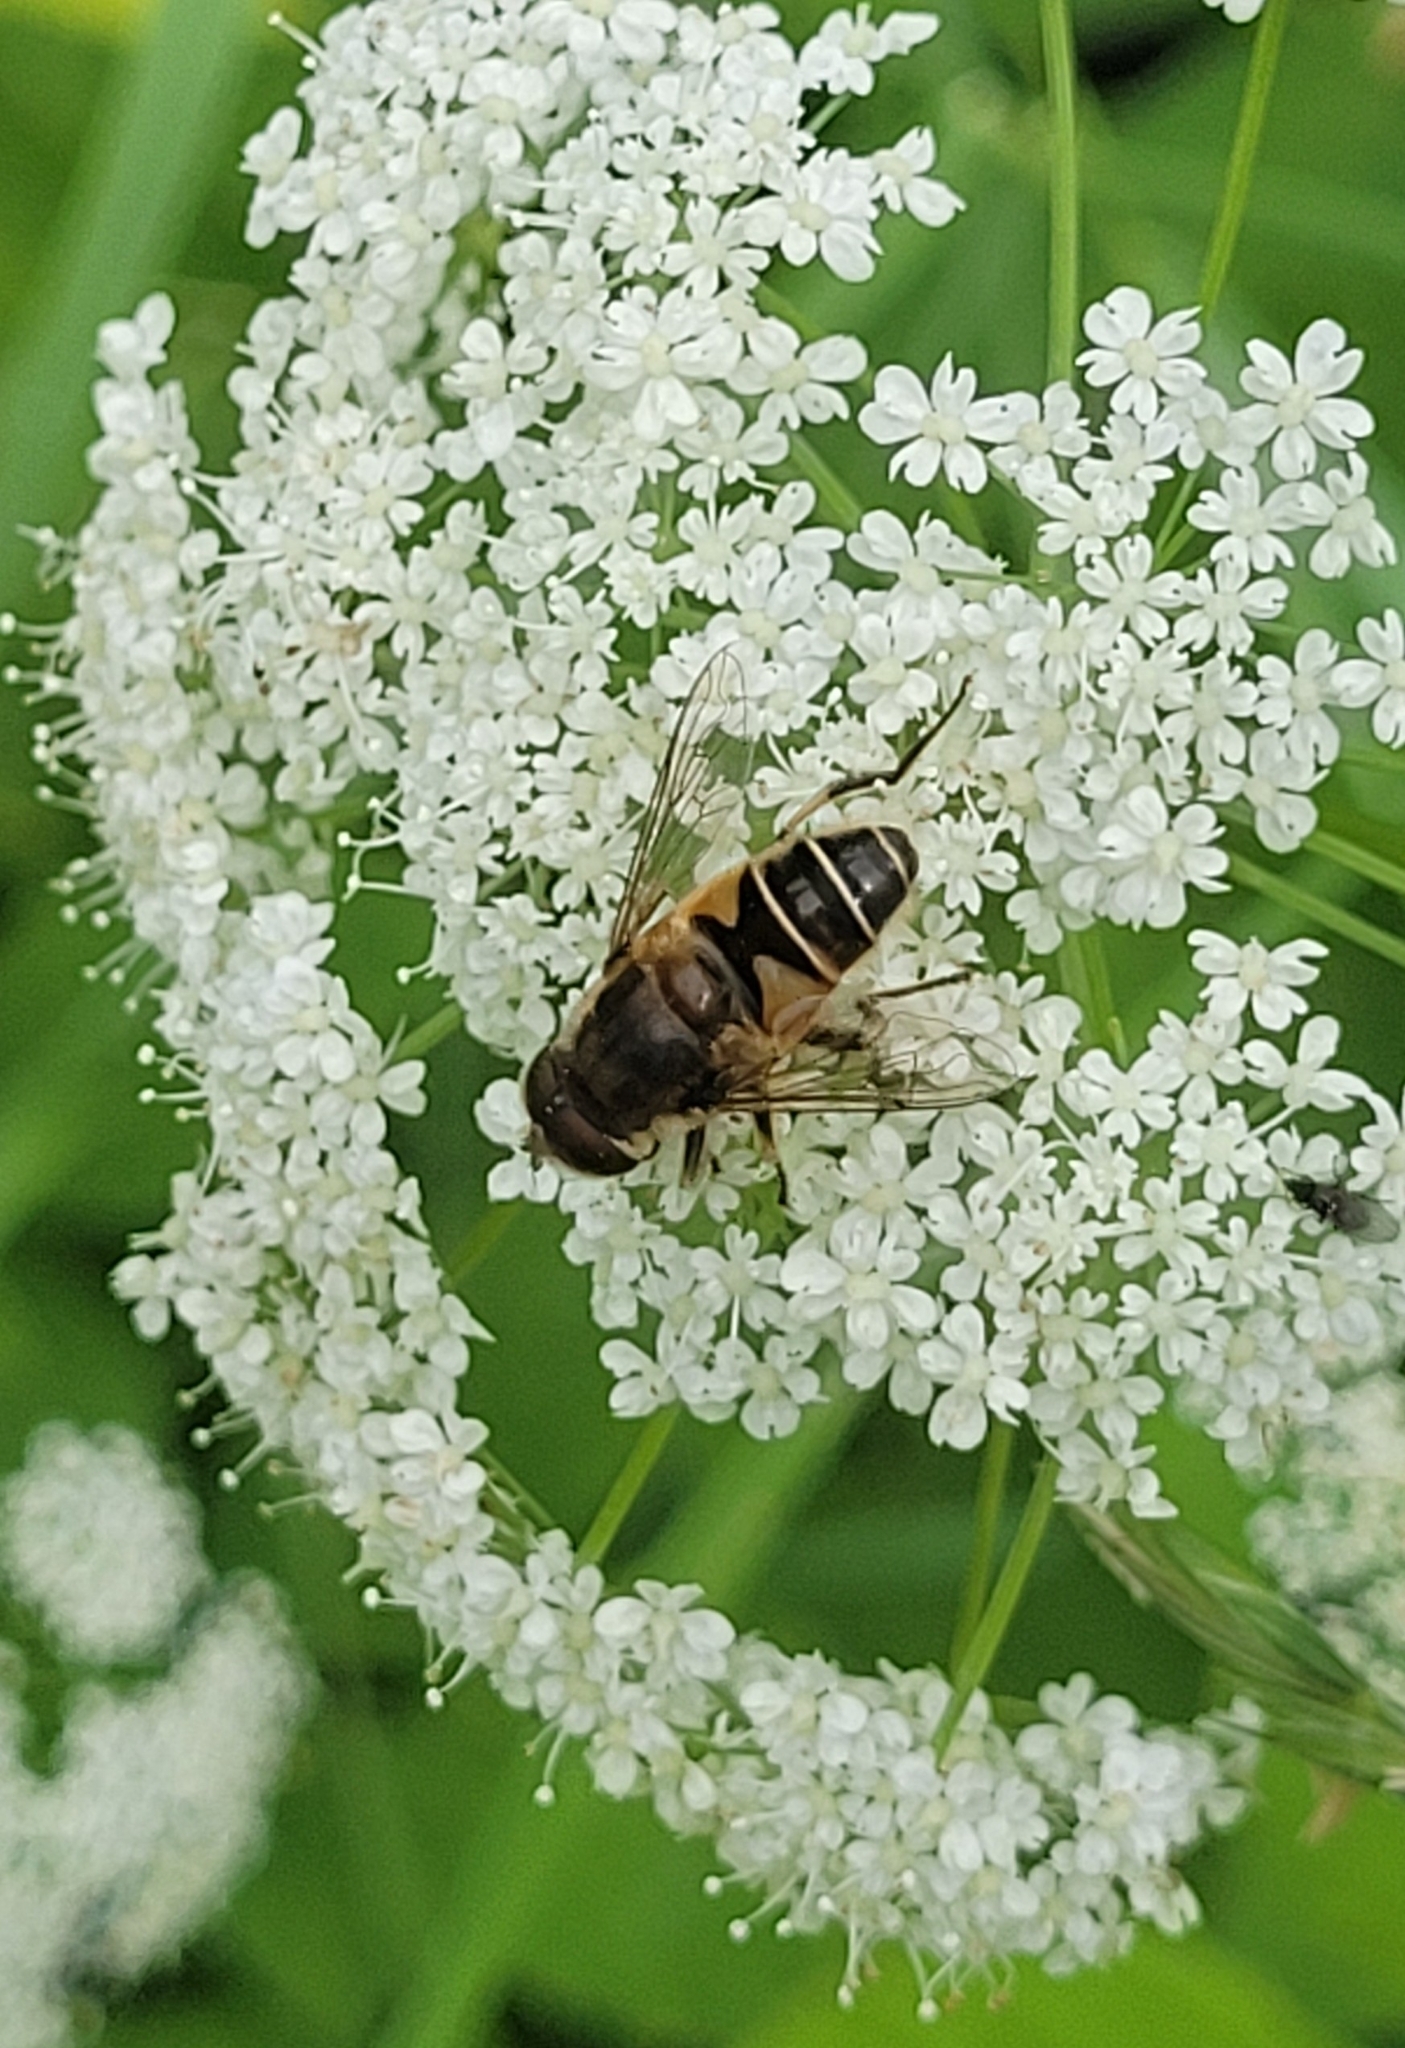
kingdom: Animalia
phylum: Arthropoda
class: Insecta
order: Diptera
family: Syrphidae
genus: Eristalis
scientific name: Eristalis nemorum
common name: Orange-spined drone fly
